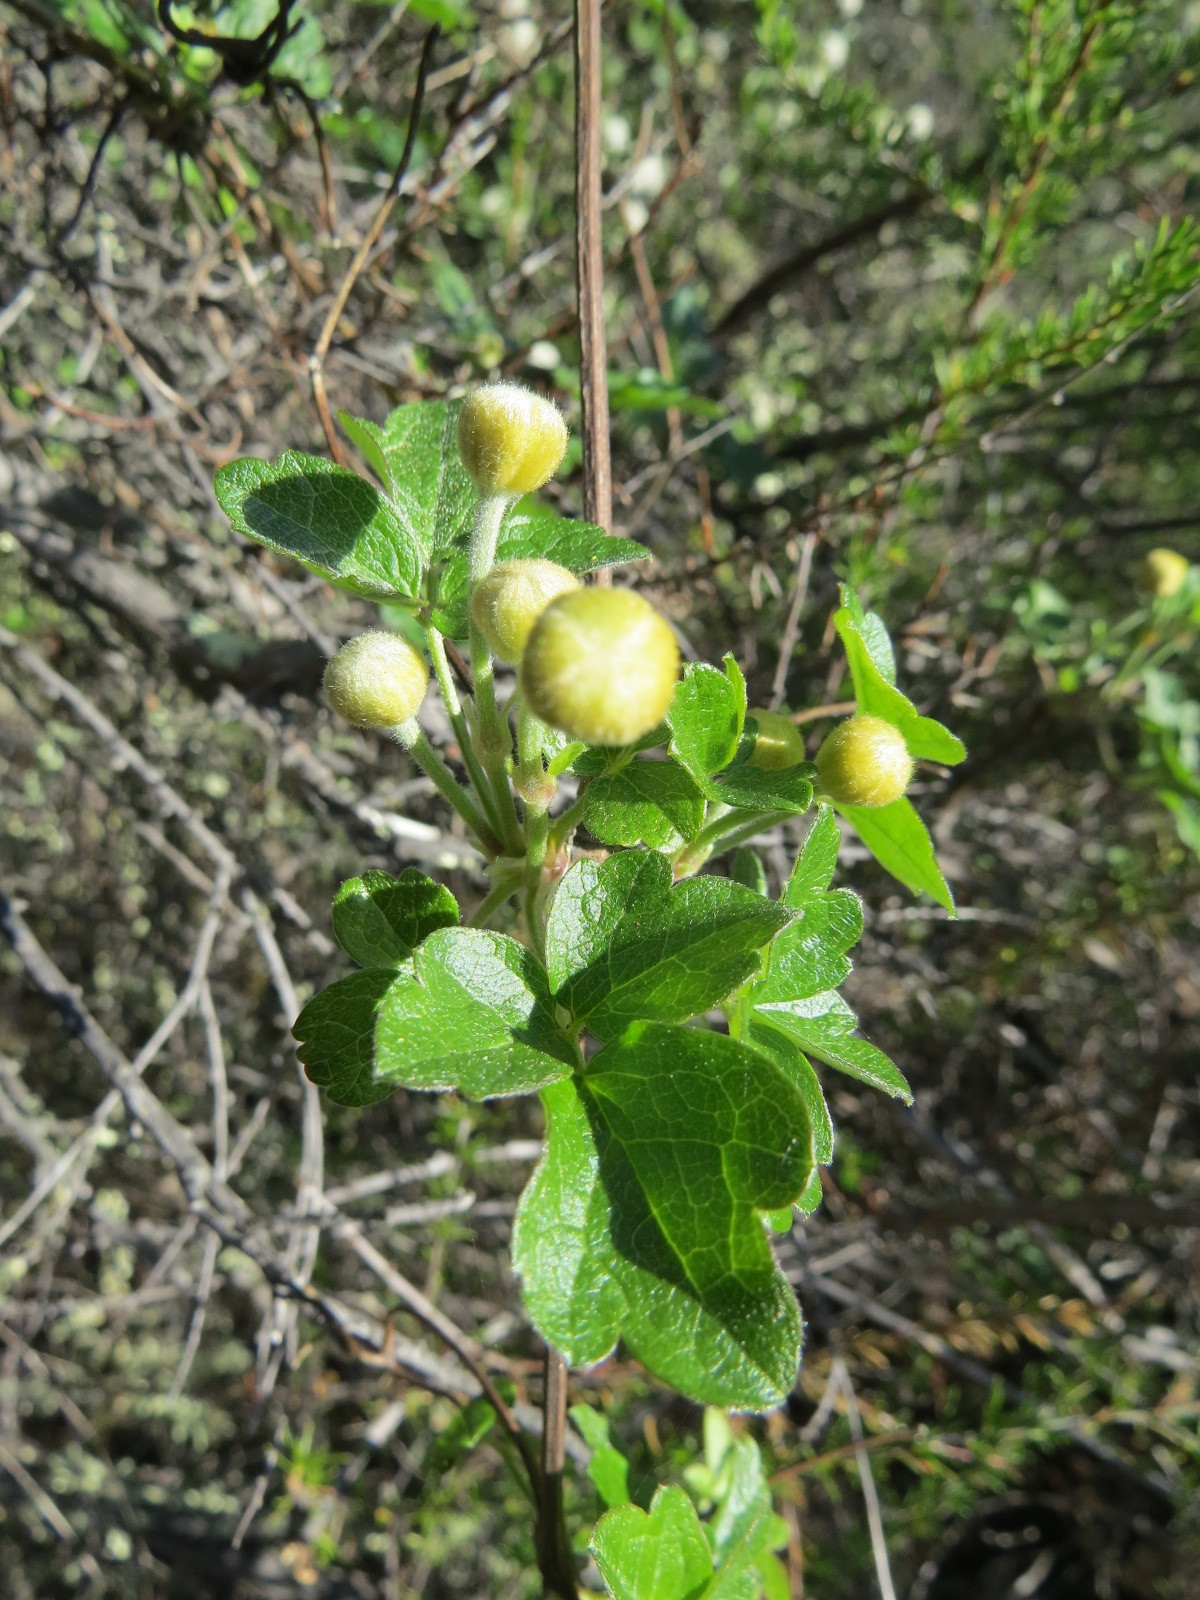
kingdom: Plantae
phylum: Tracheophyta
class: Magnoliopsida
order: Ranunculales
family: Ranunculaceae
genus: Clematis
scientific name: Clematis lasiantha
